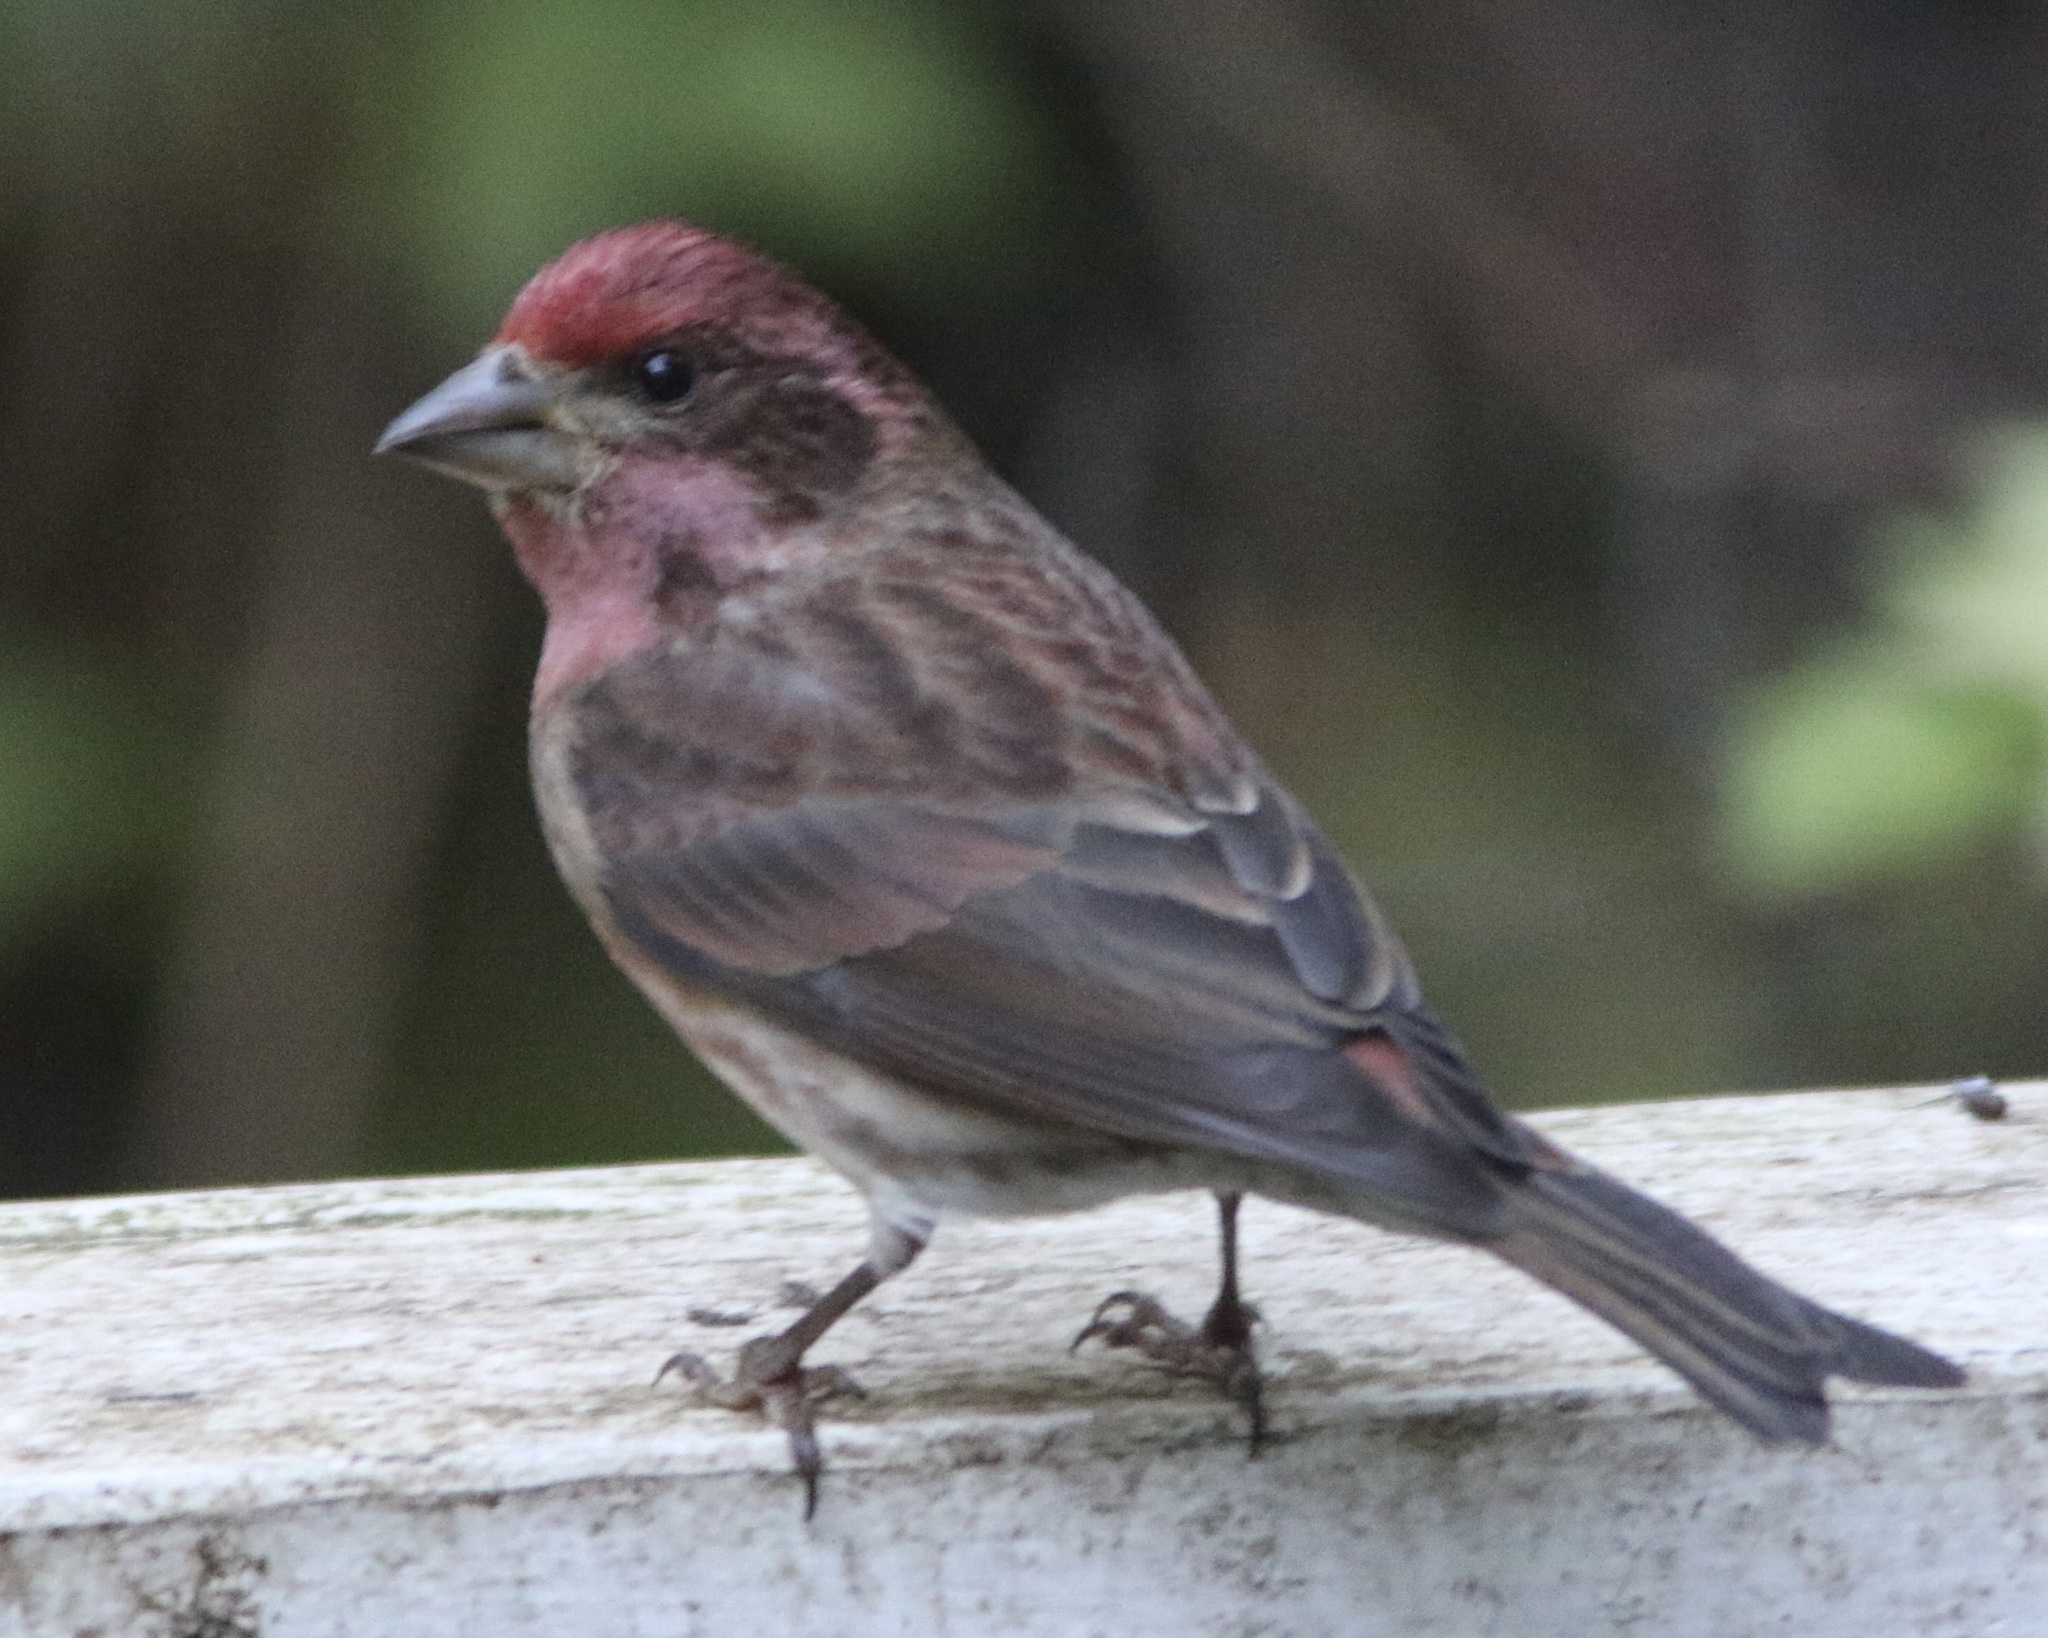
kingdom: Animalia
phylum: Chordata
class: Aves
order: Passeriformes
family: Fringillidae
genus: Haemorhous
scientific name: Haemorhous purpureus
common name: Purple finch
